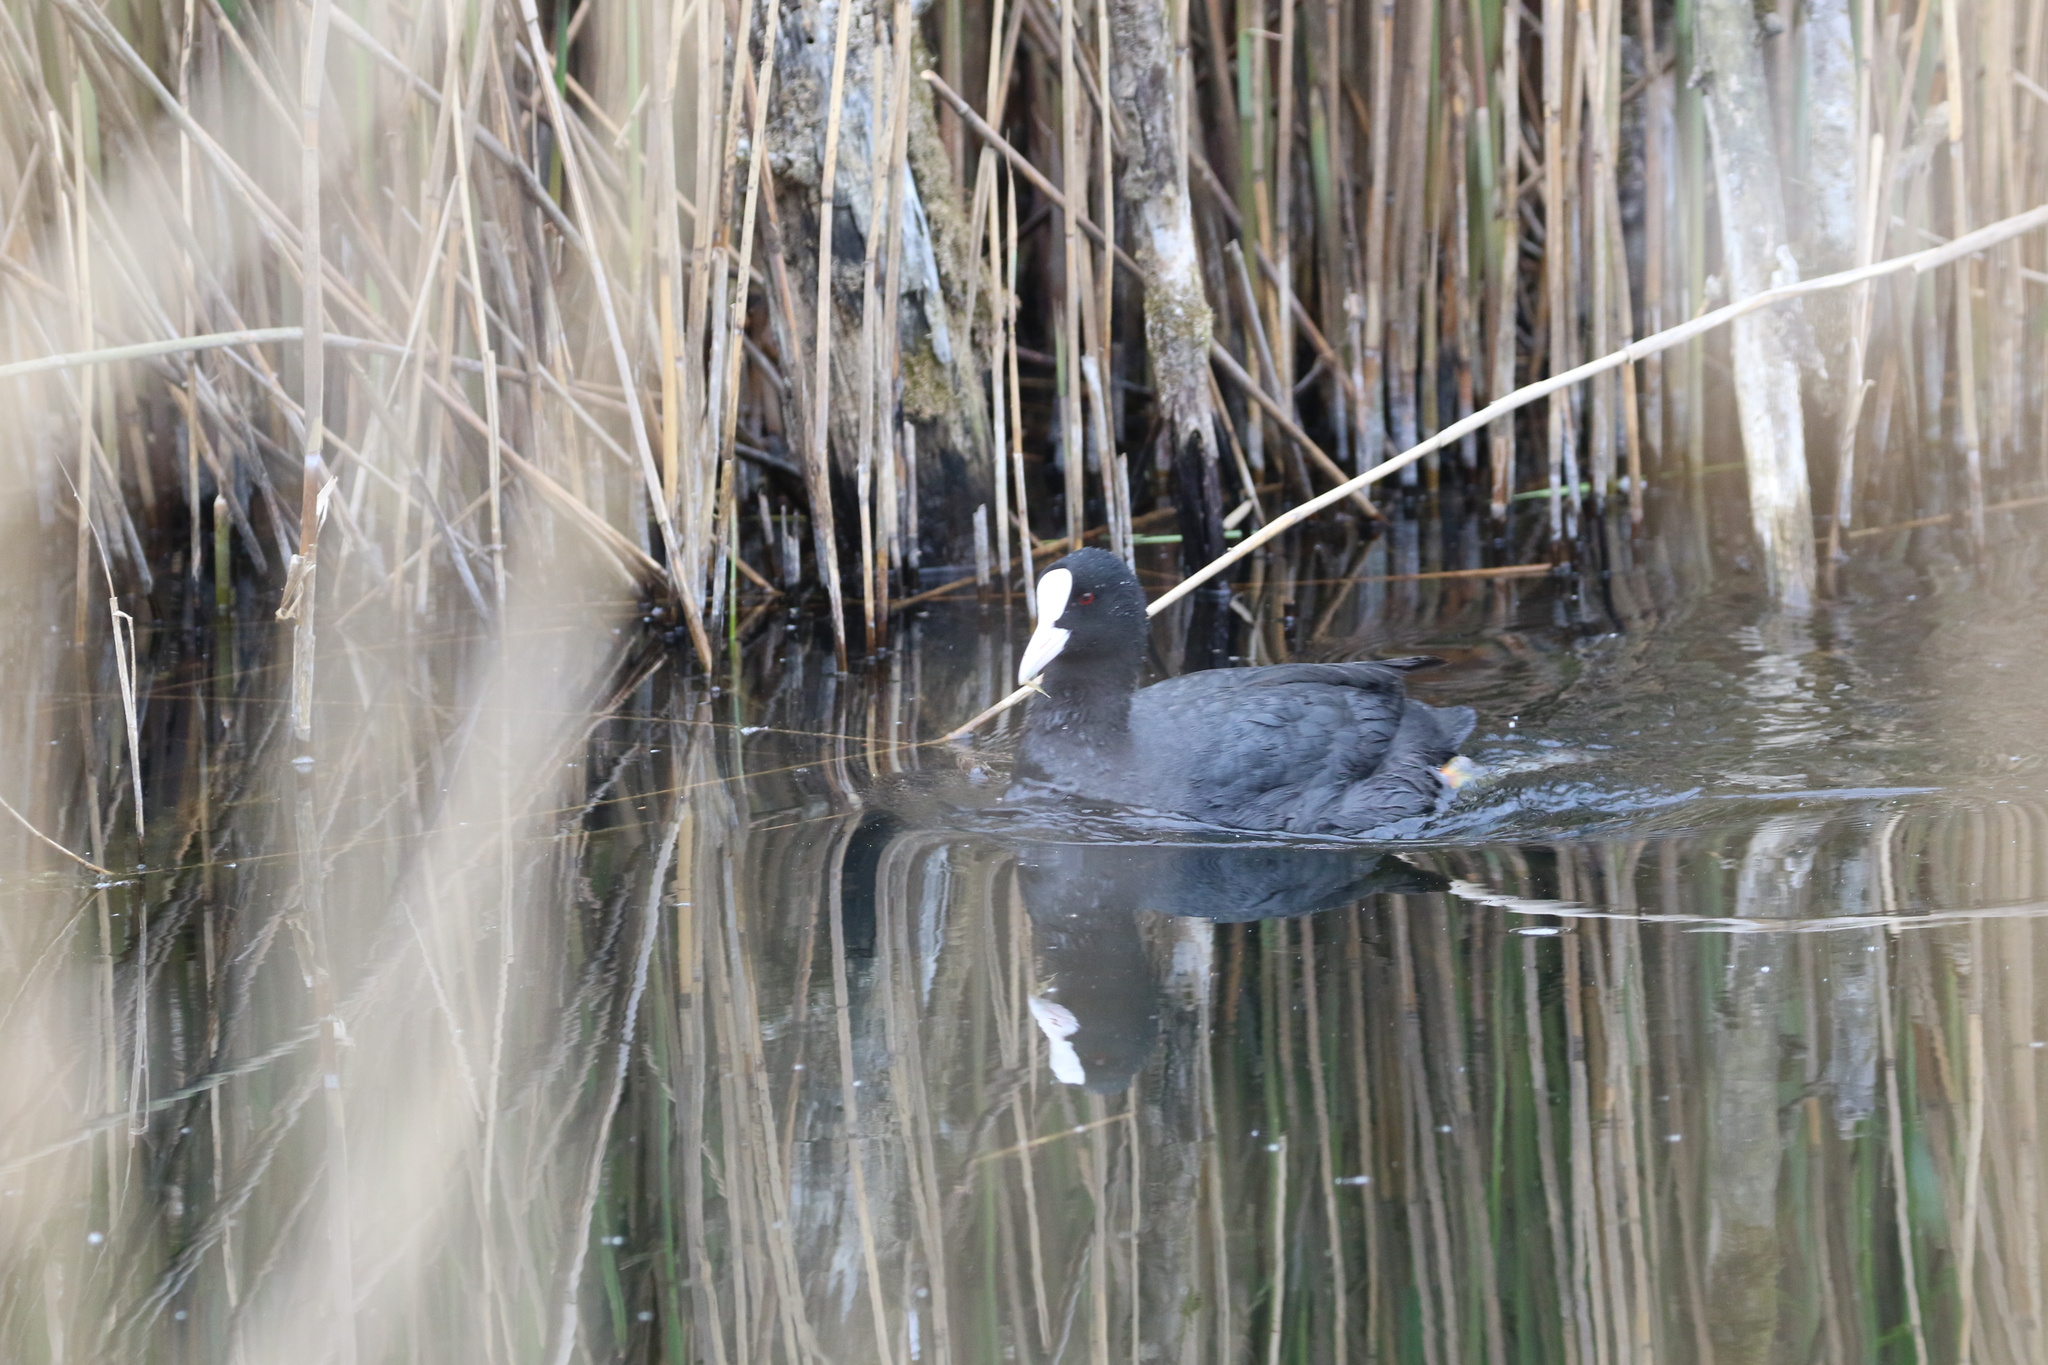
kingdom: Animalia
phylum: Chordata
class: Aves
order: Gruiformes
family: Rallidae
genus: Fulica
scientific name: Fulica atra
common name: Eurasian coot
